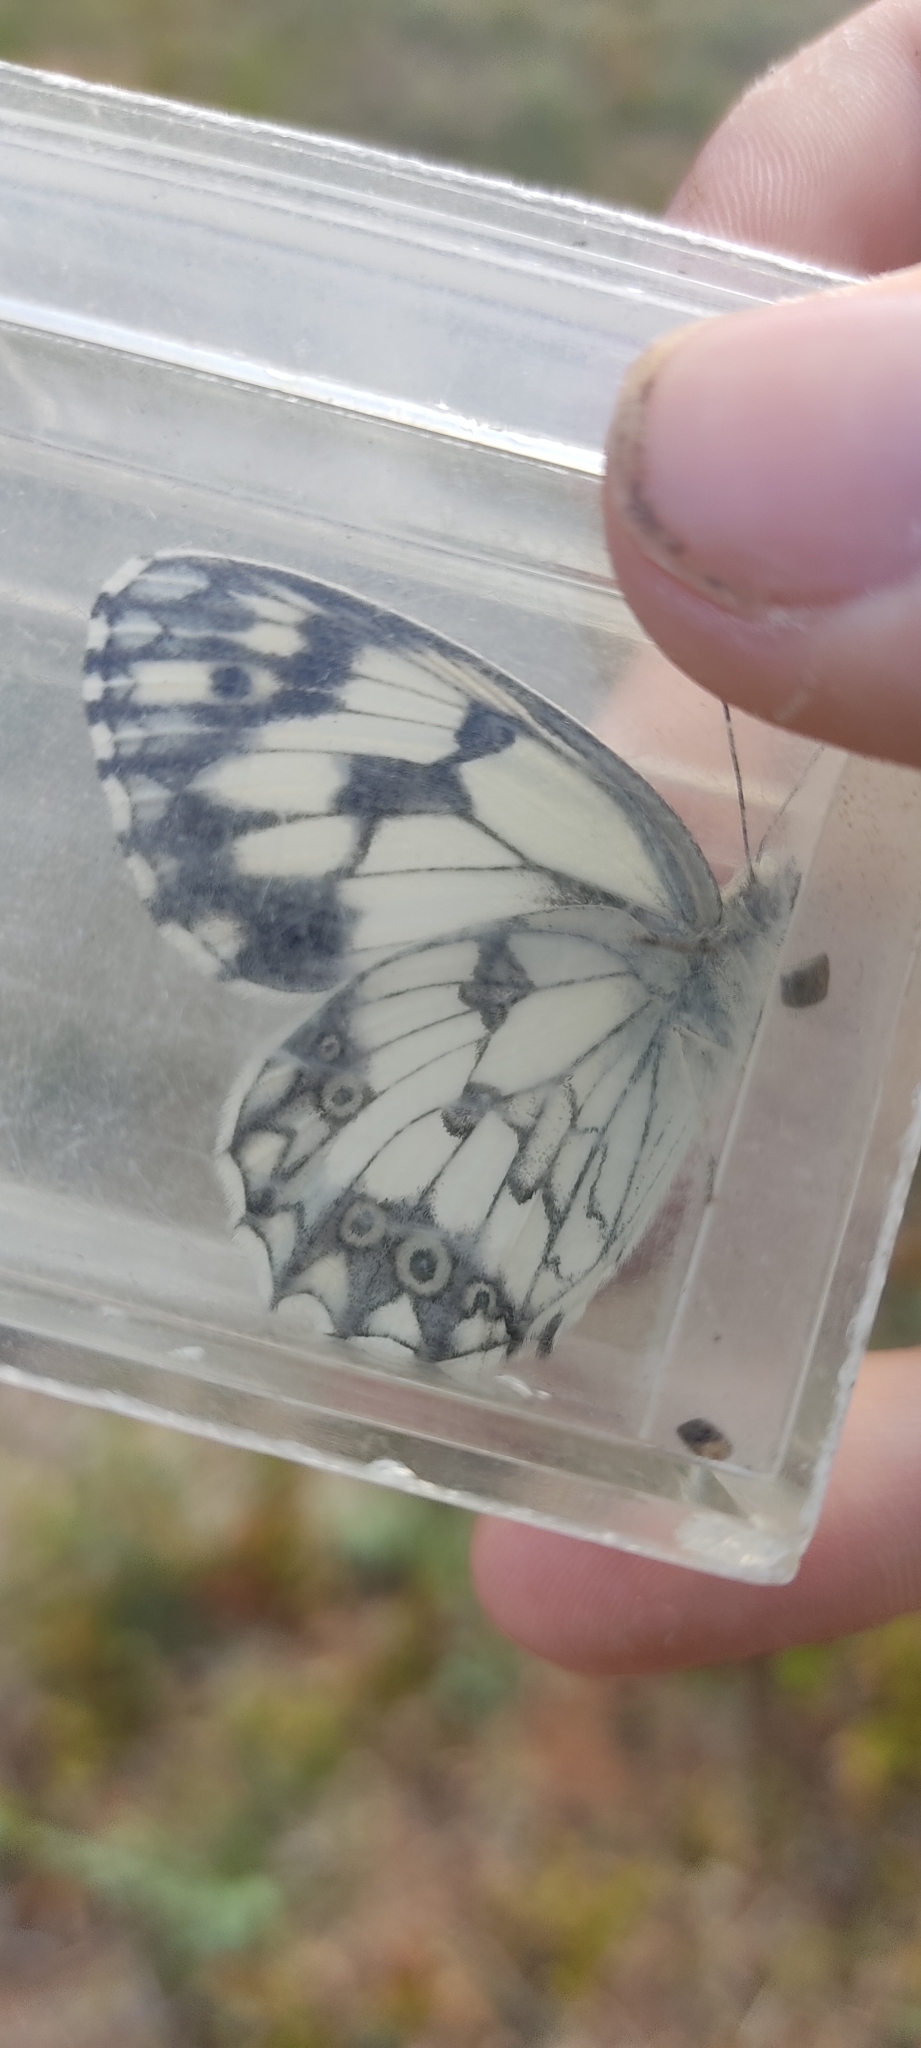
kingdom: Animalia
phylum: Arthropoda
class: Insecta
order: Lepidoptera
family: Nymphalidae
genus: Melanargia
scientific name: Melanargia lachesis
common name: Iberian marbled white
